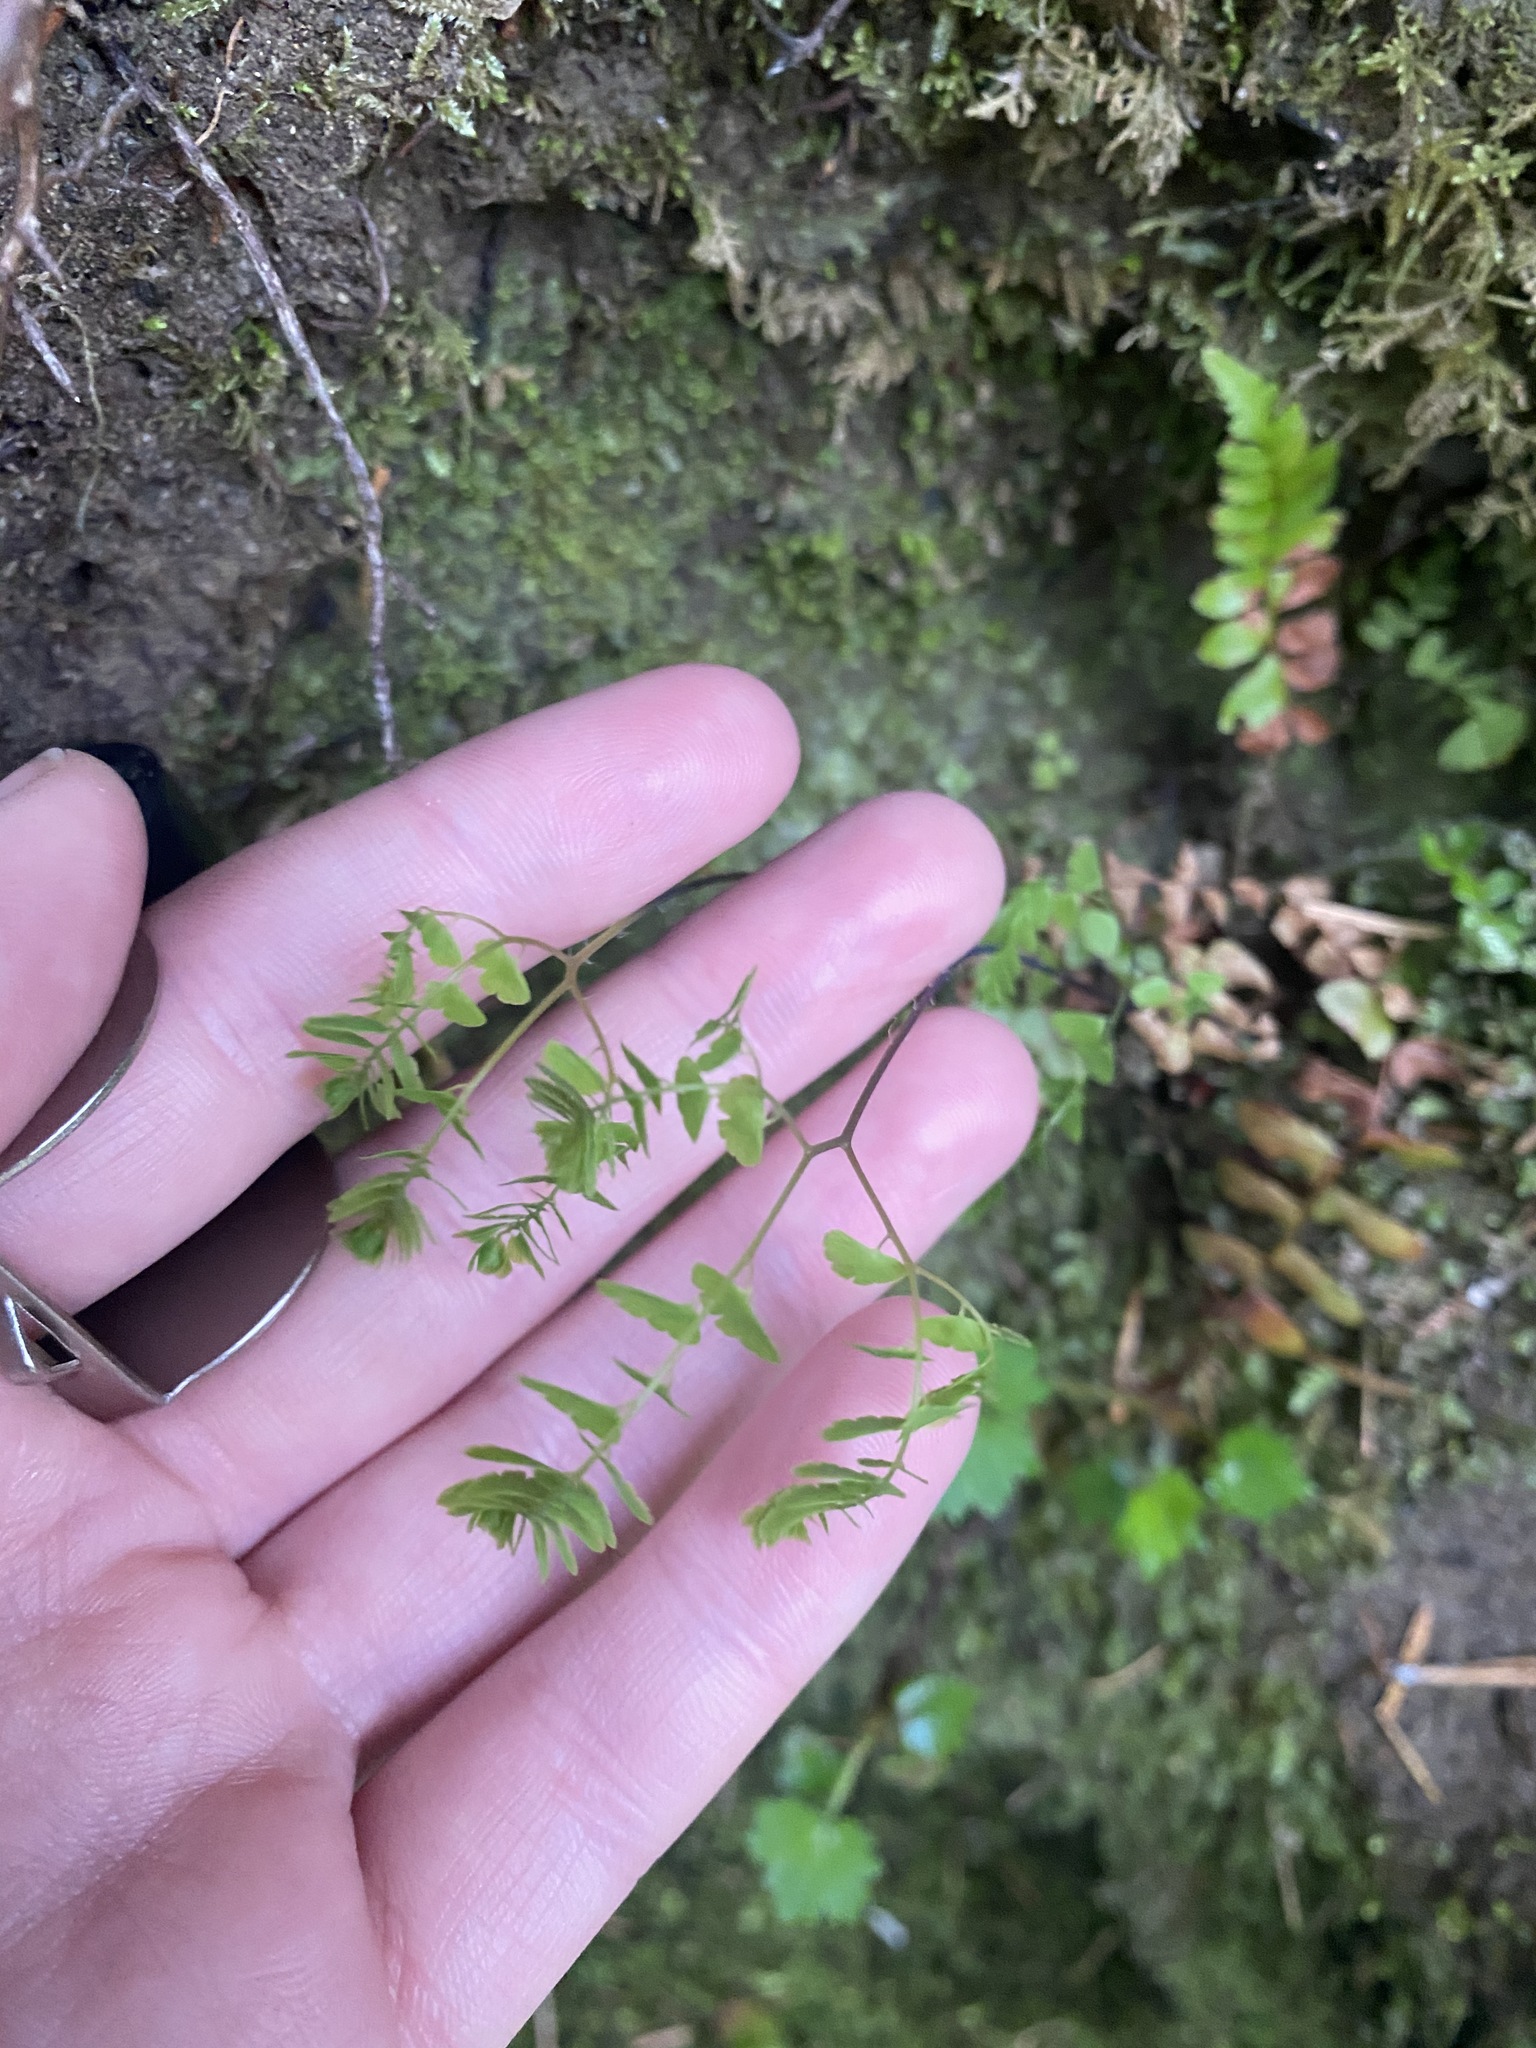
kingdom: Plantae
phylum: Tracheophyta
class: Polypodiopsida
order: Polypodiales
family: Pteridaceae
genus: Adiantum
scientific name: Adiantum aleuticum
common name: Aleutian maidenhair fern
